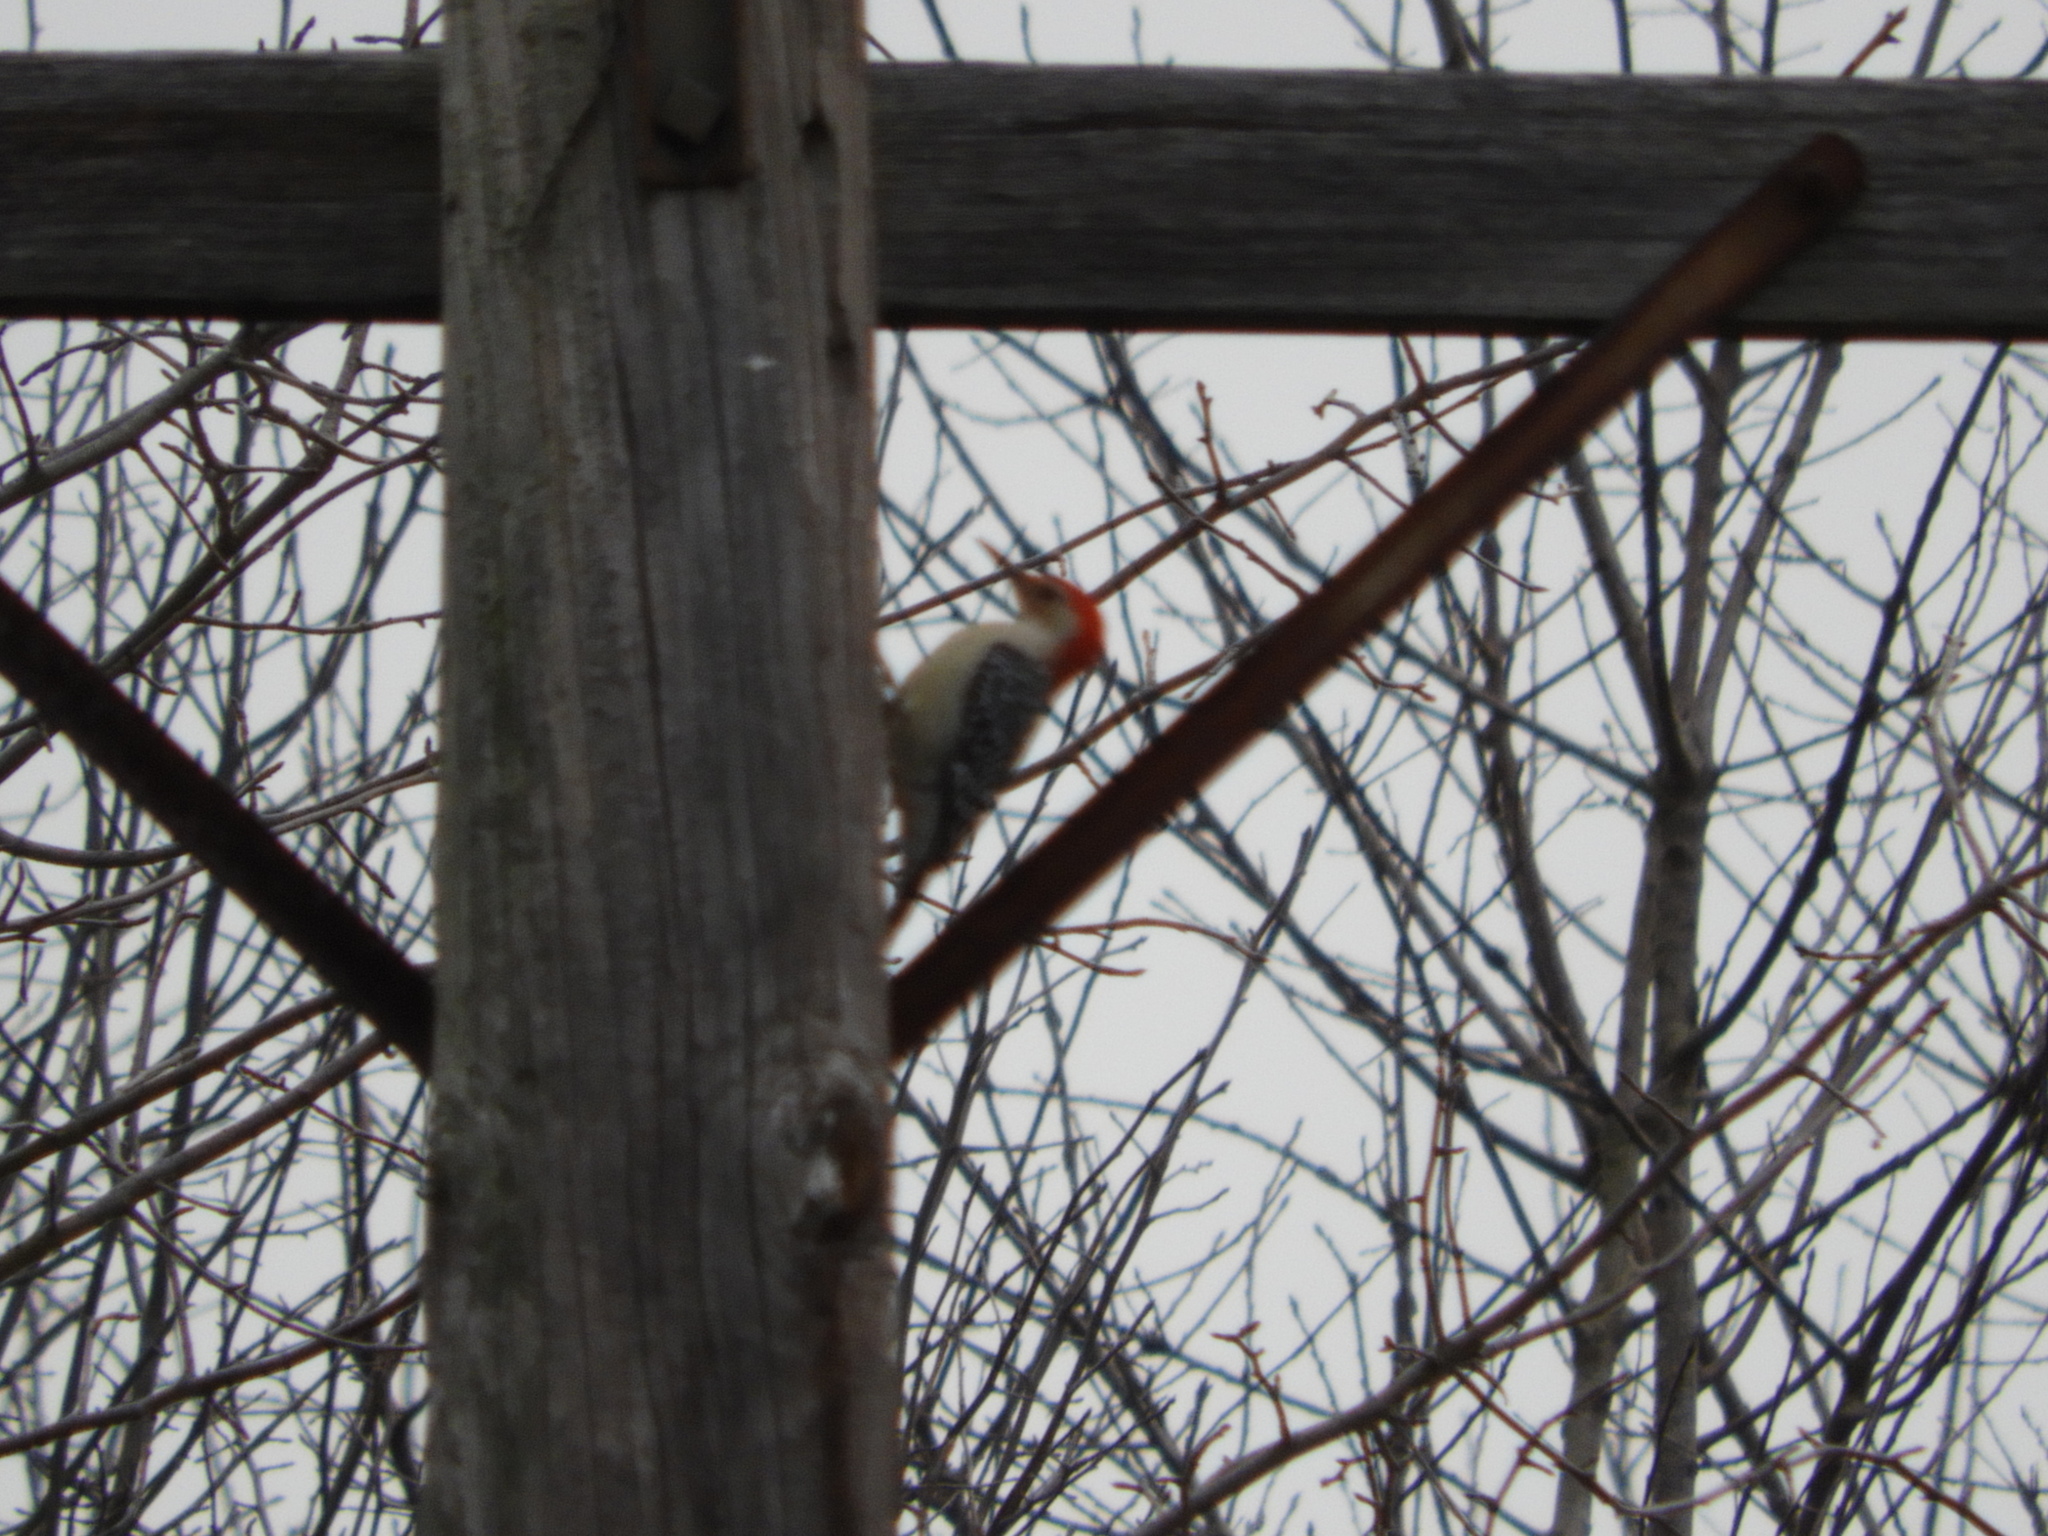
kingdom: Animalia
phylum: Chordata
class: Aves
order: Piciformes
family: Picidae
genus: Melanerpes
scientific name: Melanerpes carolinus
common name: Red-bellied woodpecker
